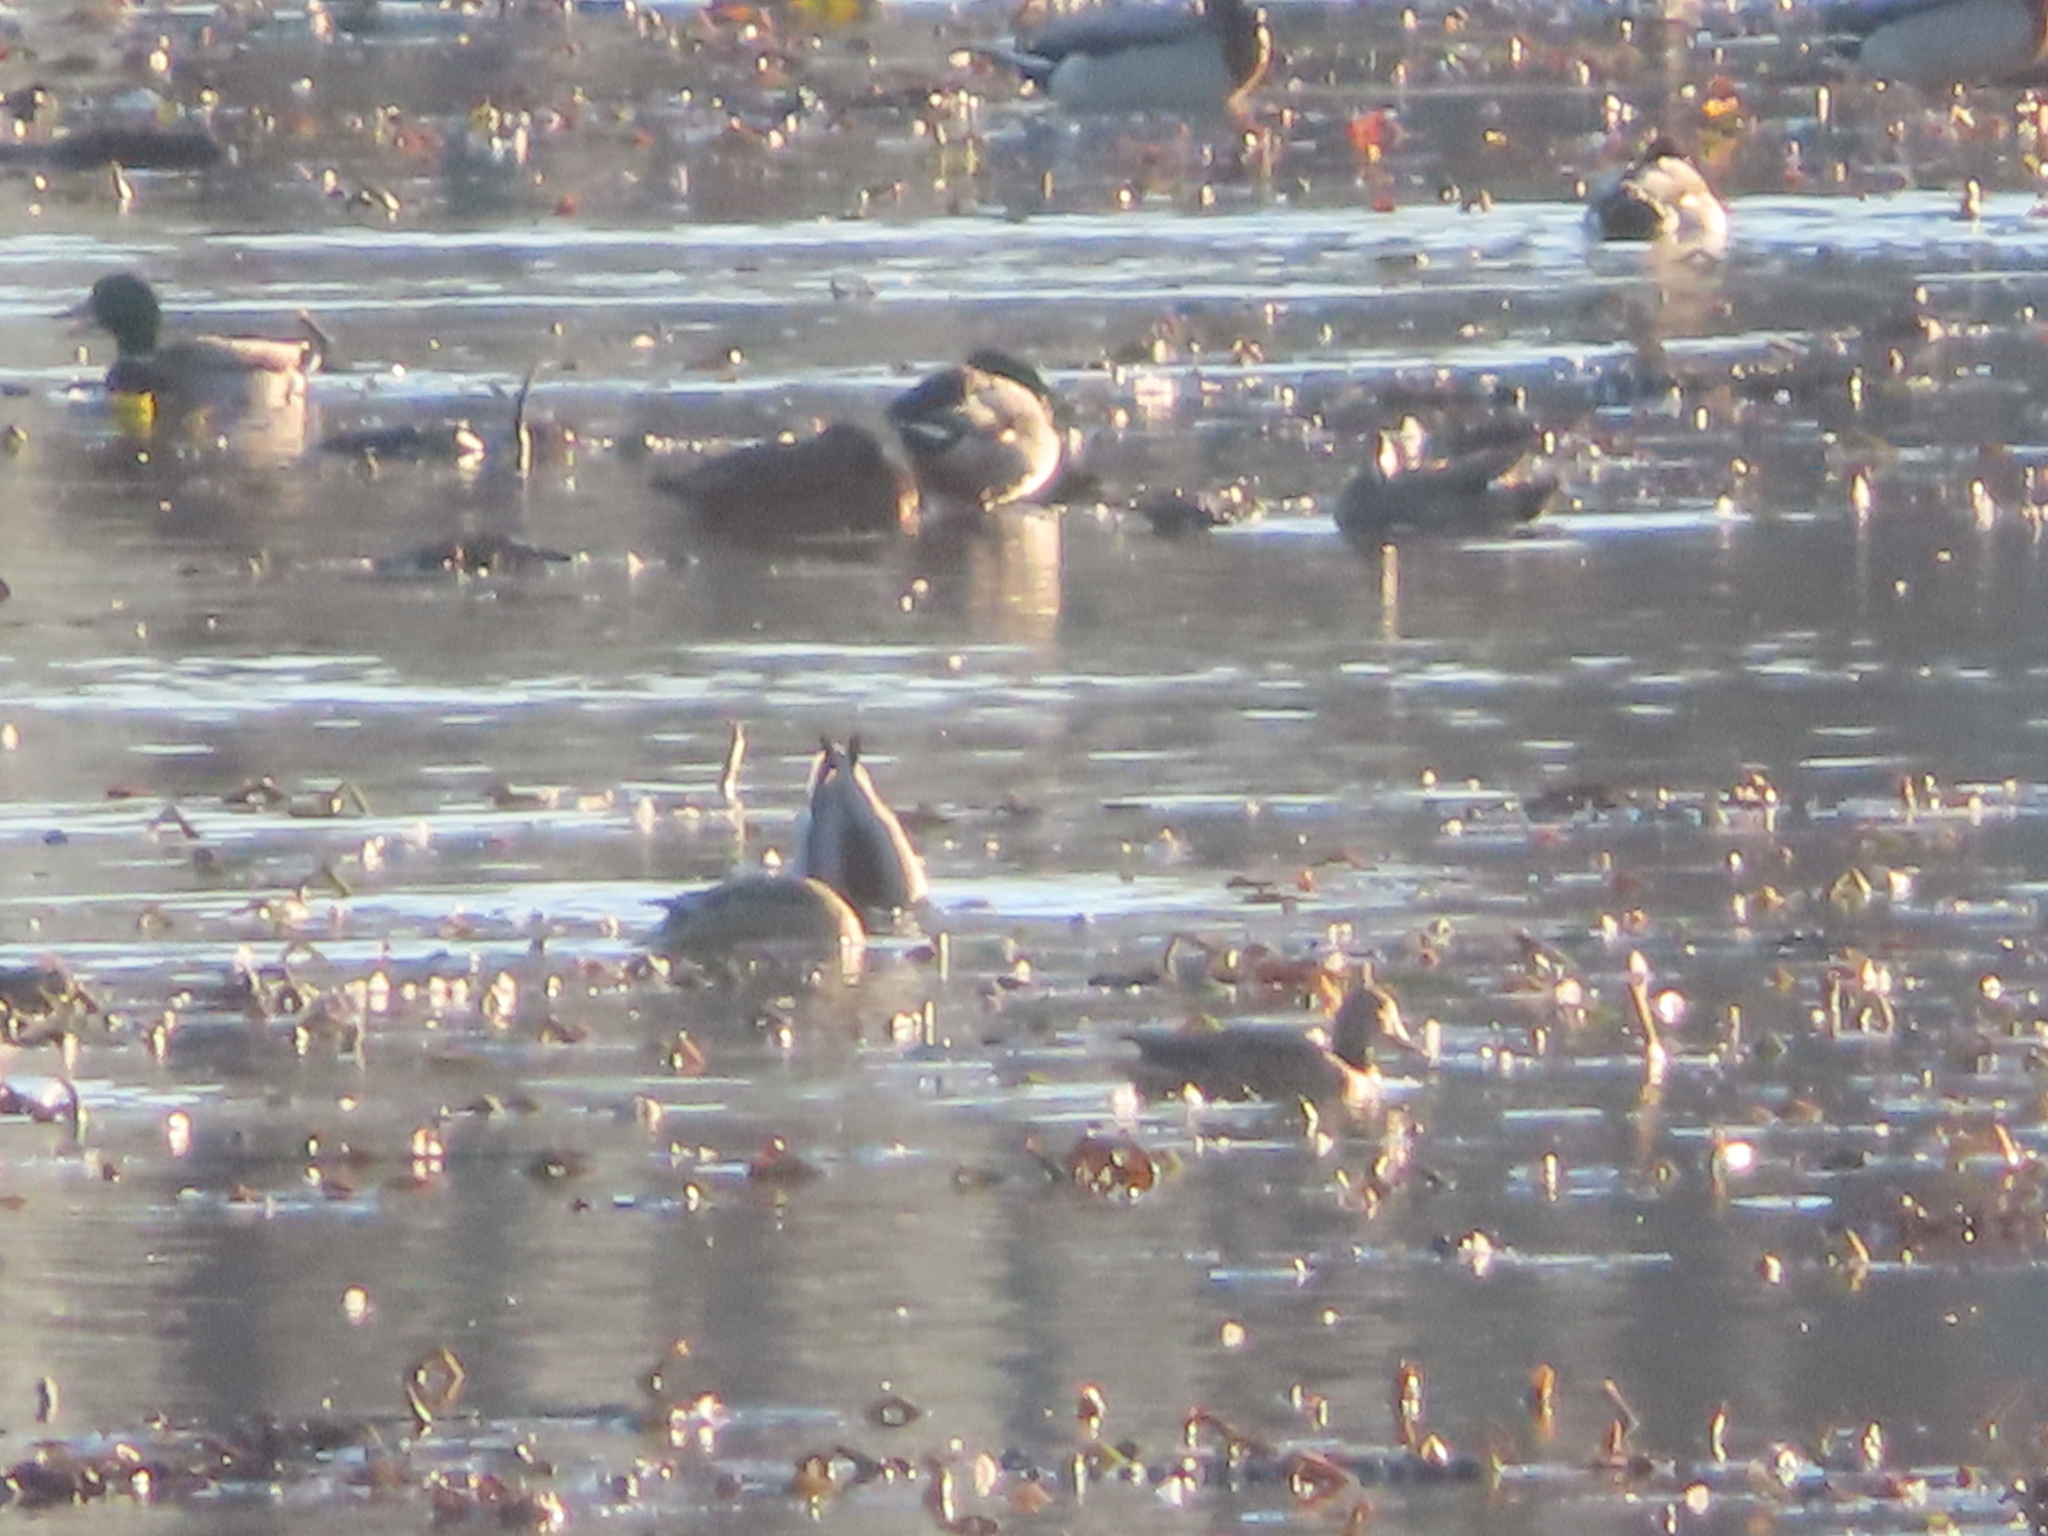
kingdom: Animalia
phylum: Chordata
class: Aves
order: Anseriformes
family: Anatidae
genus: Mareca
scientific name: Mareca strepera
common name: Gadwall
